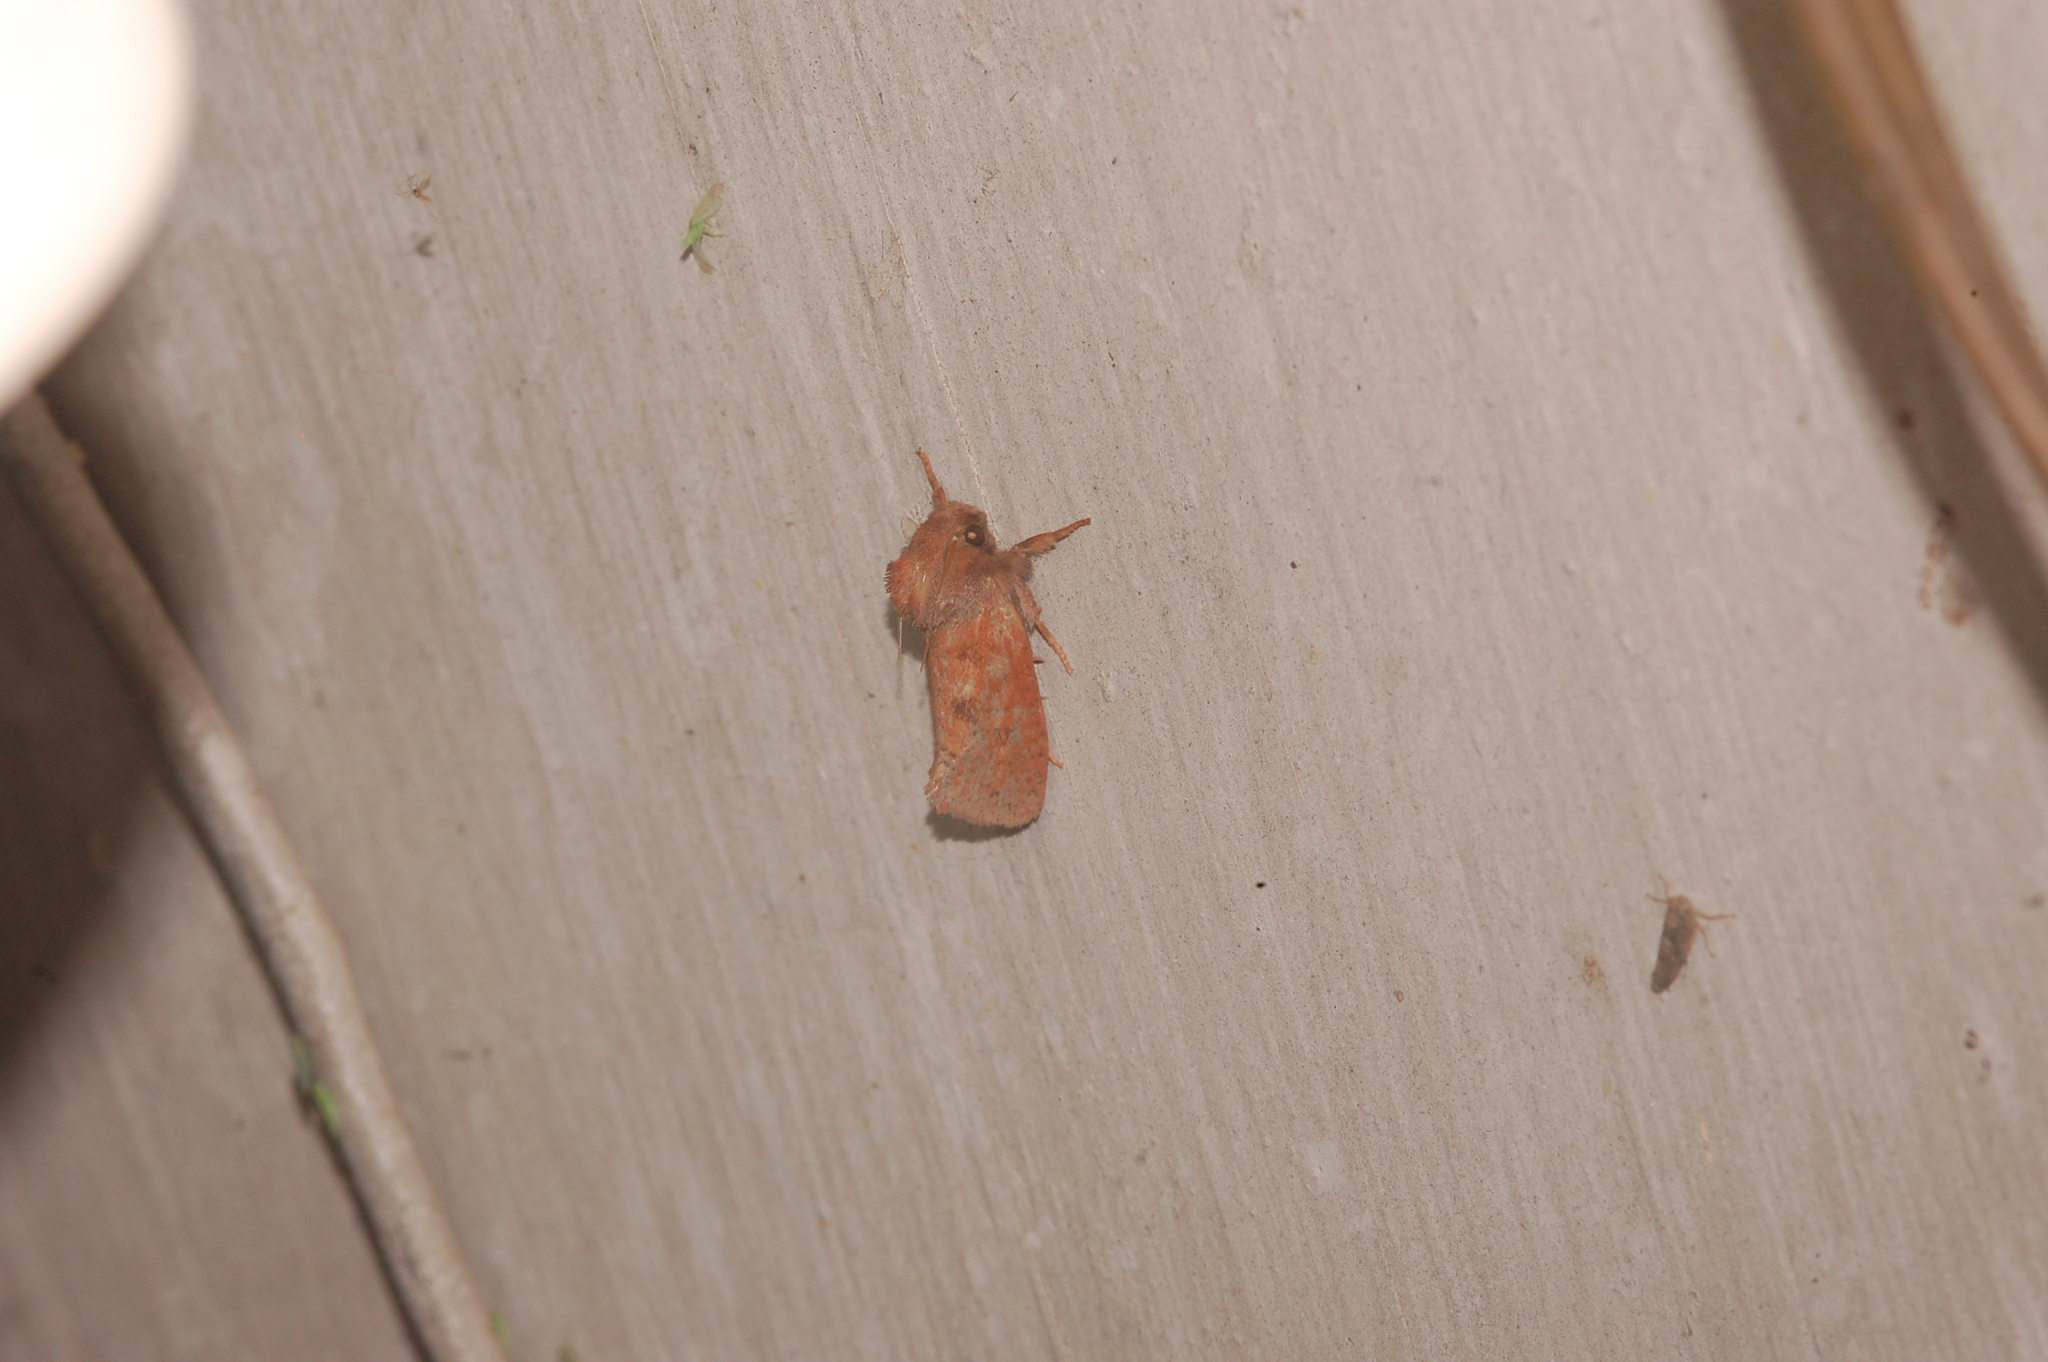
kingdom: Animalia
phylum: Arthropoda
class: Insecta
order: Lepidoptera
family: Tineidae
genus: Acrolophus
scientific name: Acrolophus plumifrontella
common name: Eastern grass tubeworm moth
